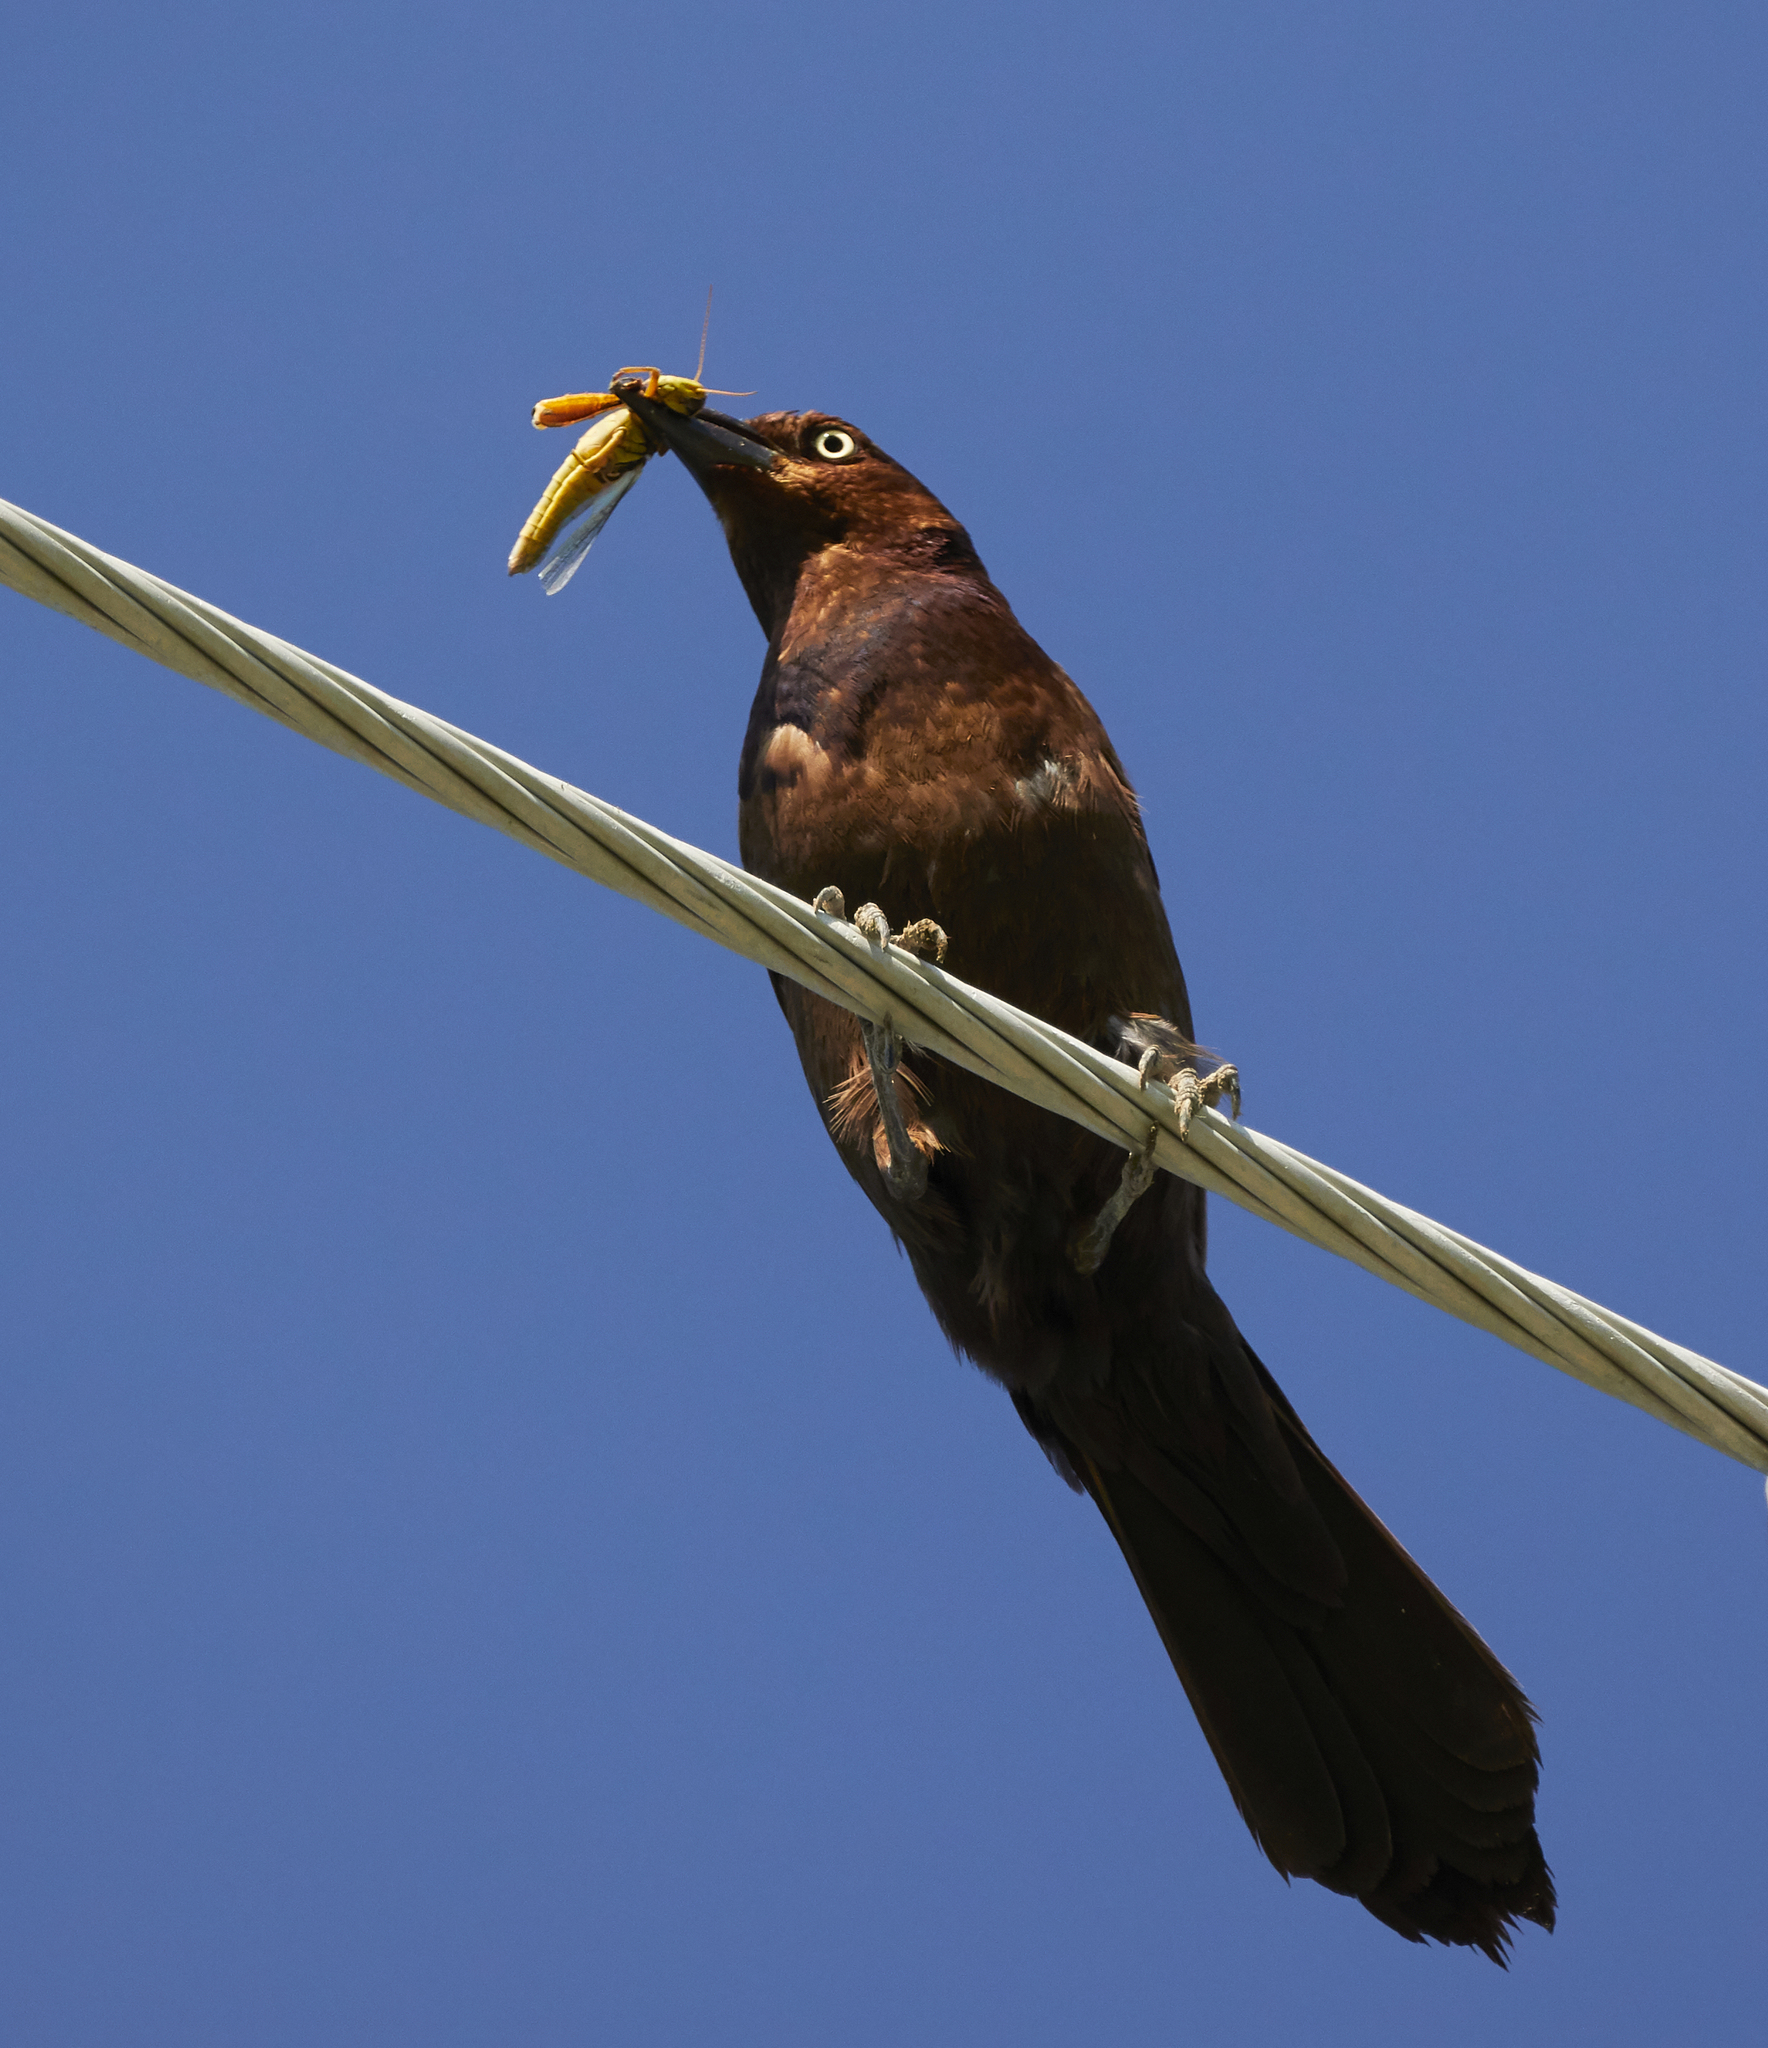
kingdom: Animalia
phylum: Chordata
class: Aves
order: Passeriformes
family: Icteridae
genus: Quiscalus
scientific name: Quiscalus quiscula
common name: Common grackle
